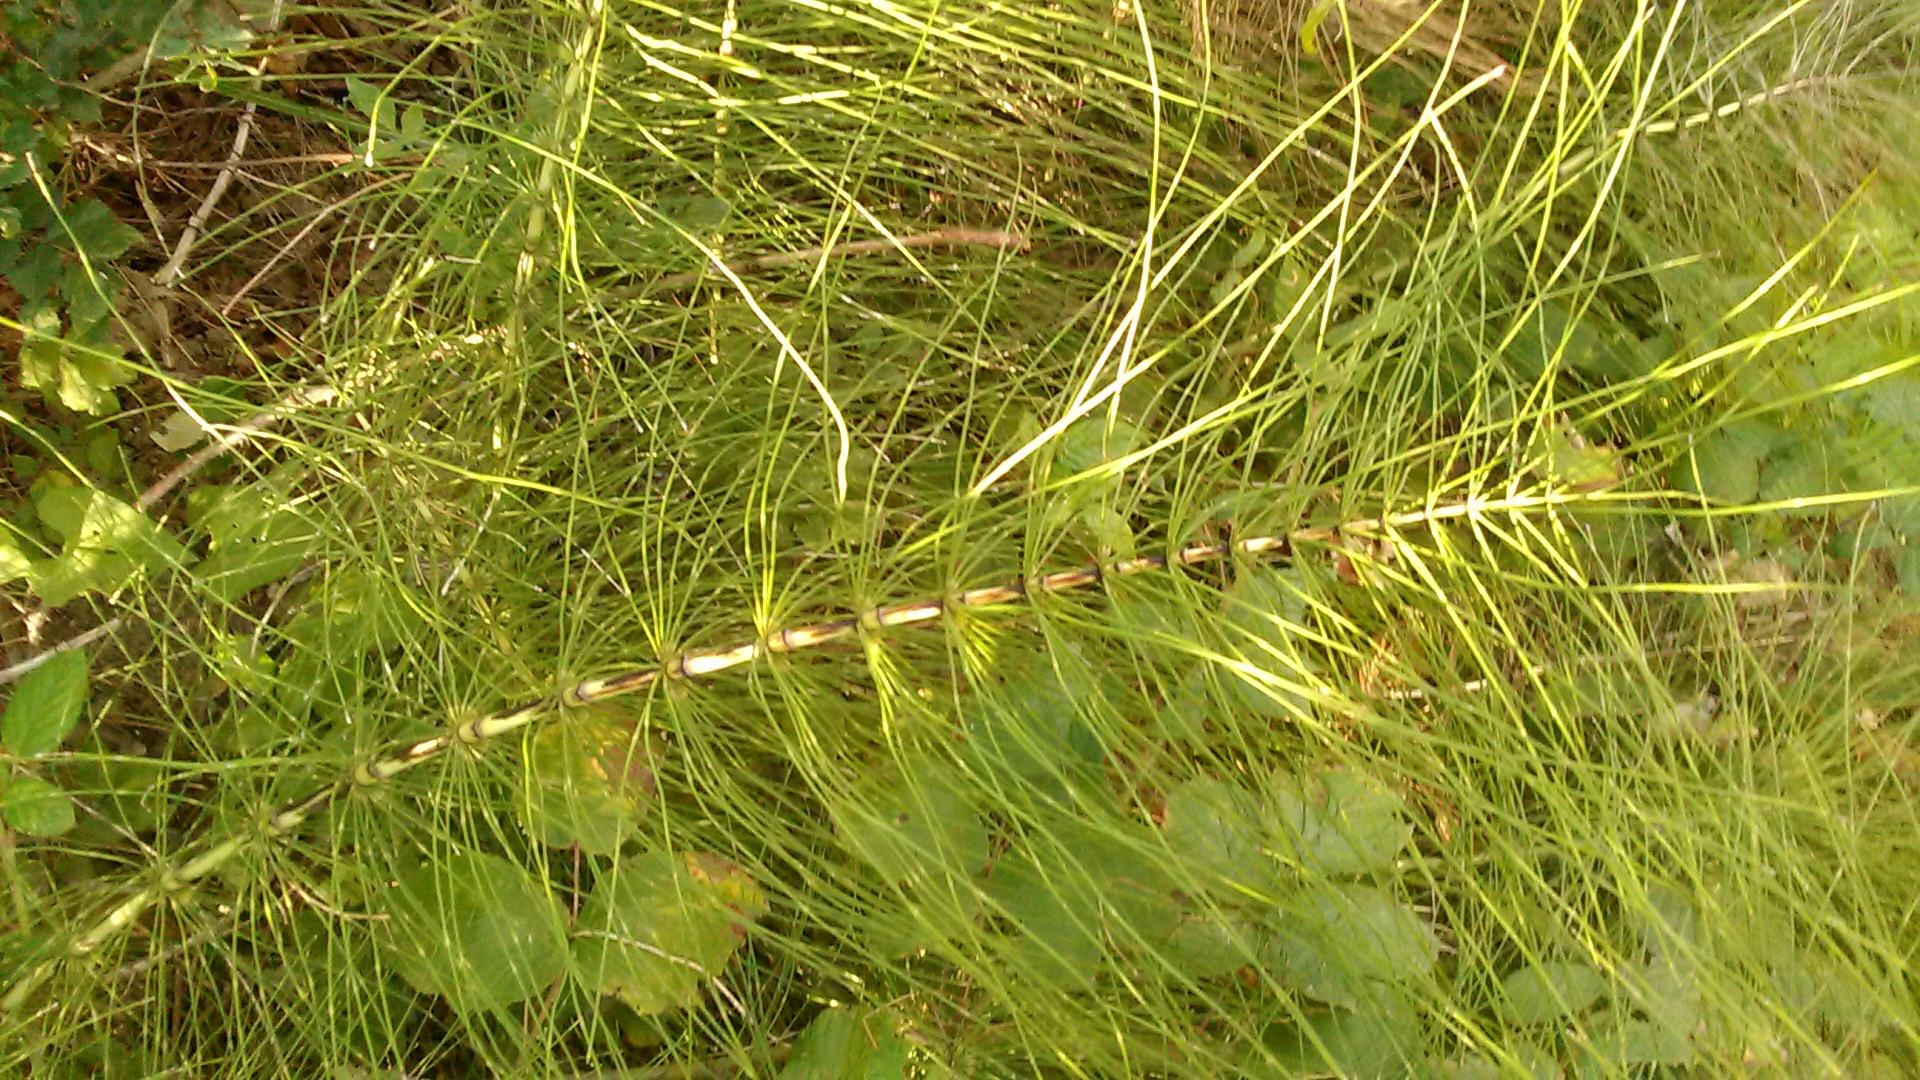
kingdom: Plantae
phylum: Tracheophyta
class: Polypodiopsida
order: Equisetales
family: Equisetaceae
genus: Equisetum
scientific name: Equisetum telmateia
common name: Great horsetail
